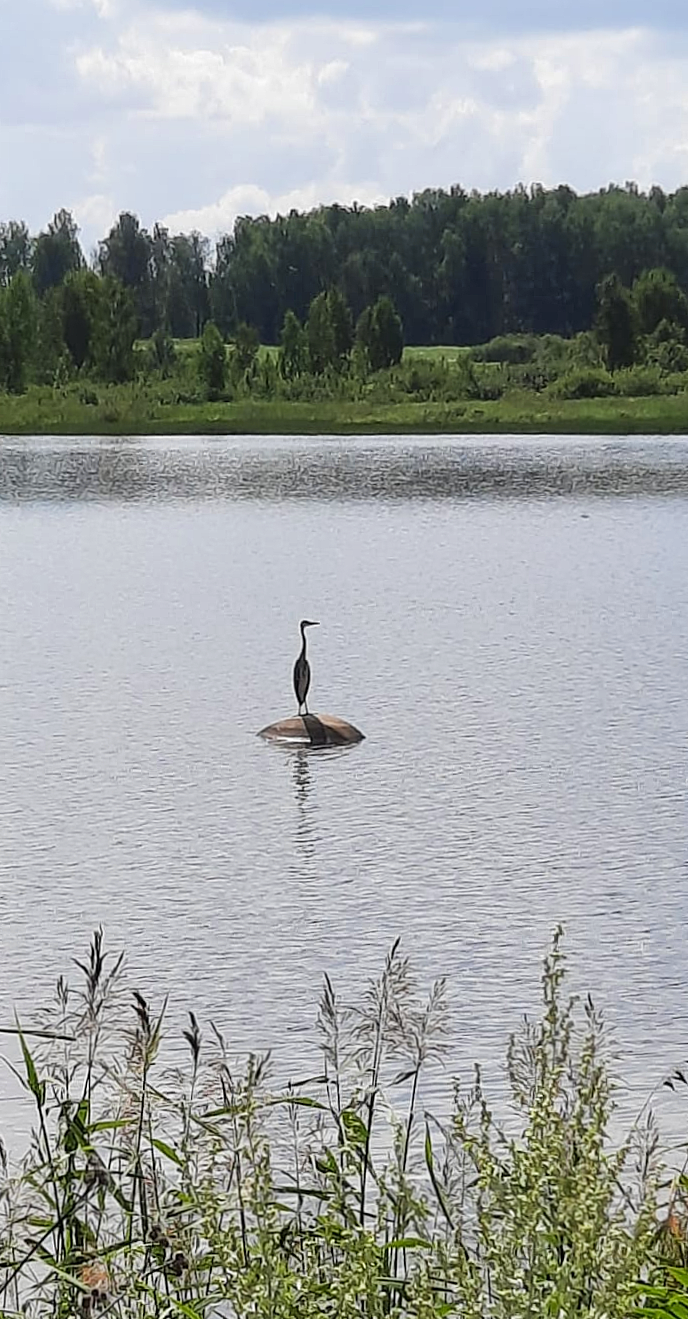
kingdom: Animalia
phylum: Chordata
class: Aves
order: Pelecaniformes
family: Ardeidae
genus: Ardea
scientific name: Ardea cinerea
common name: Grey heron
